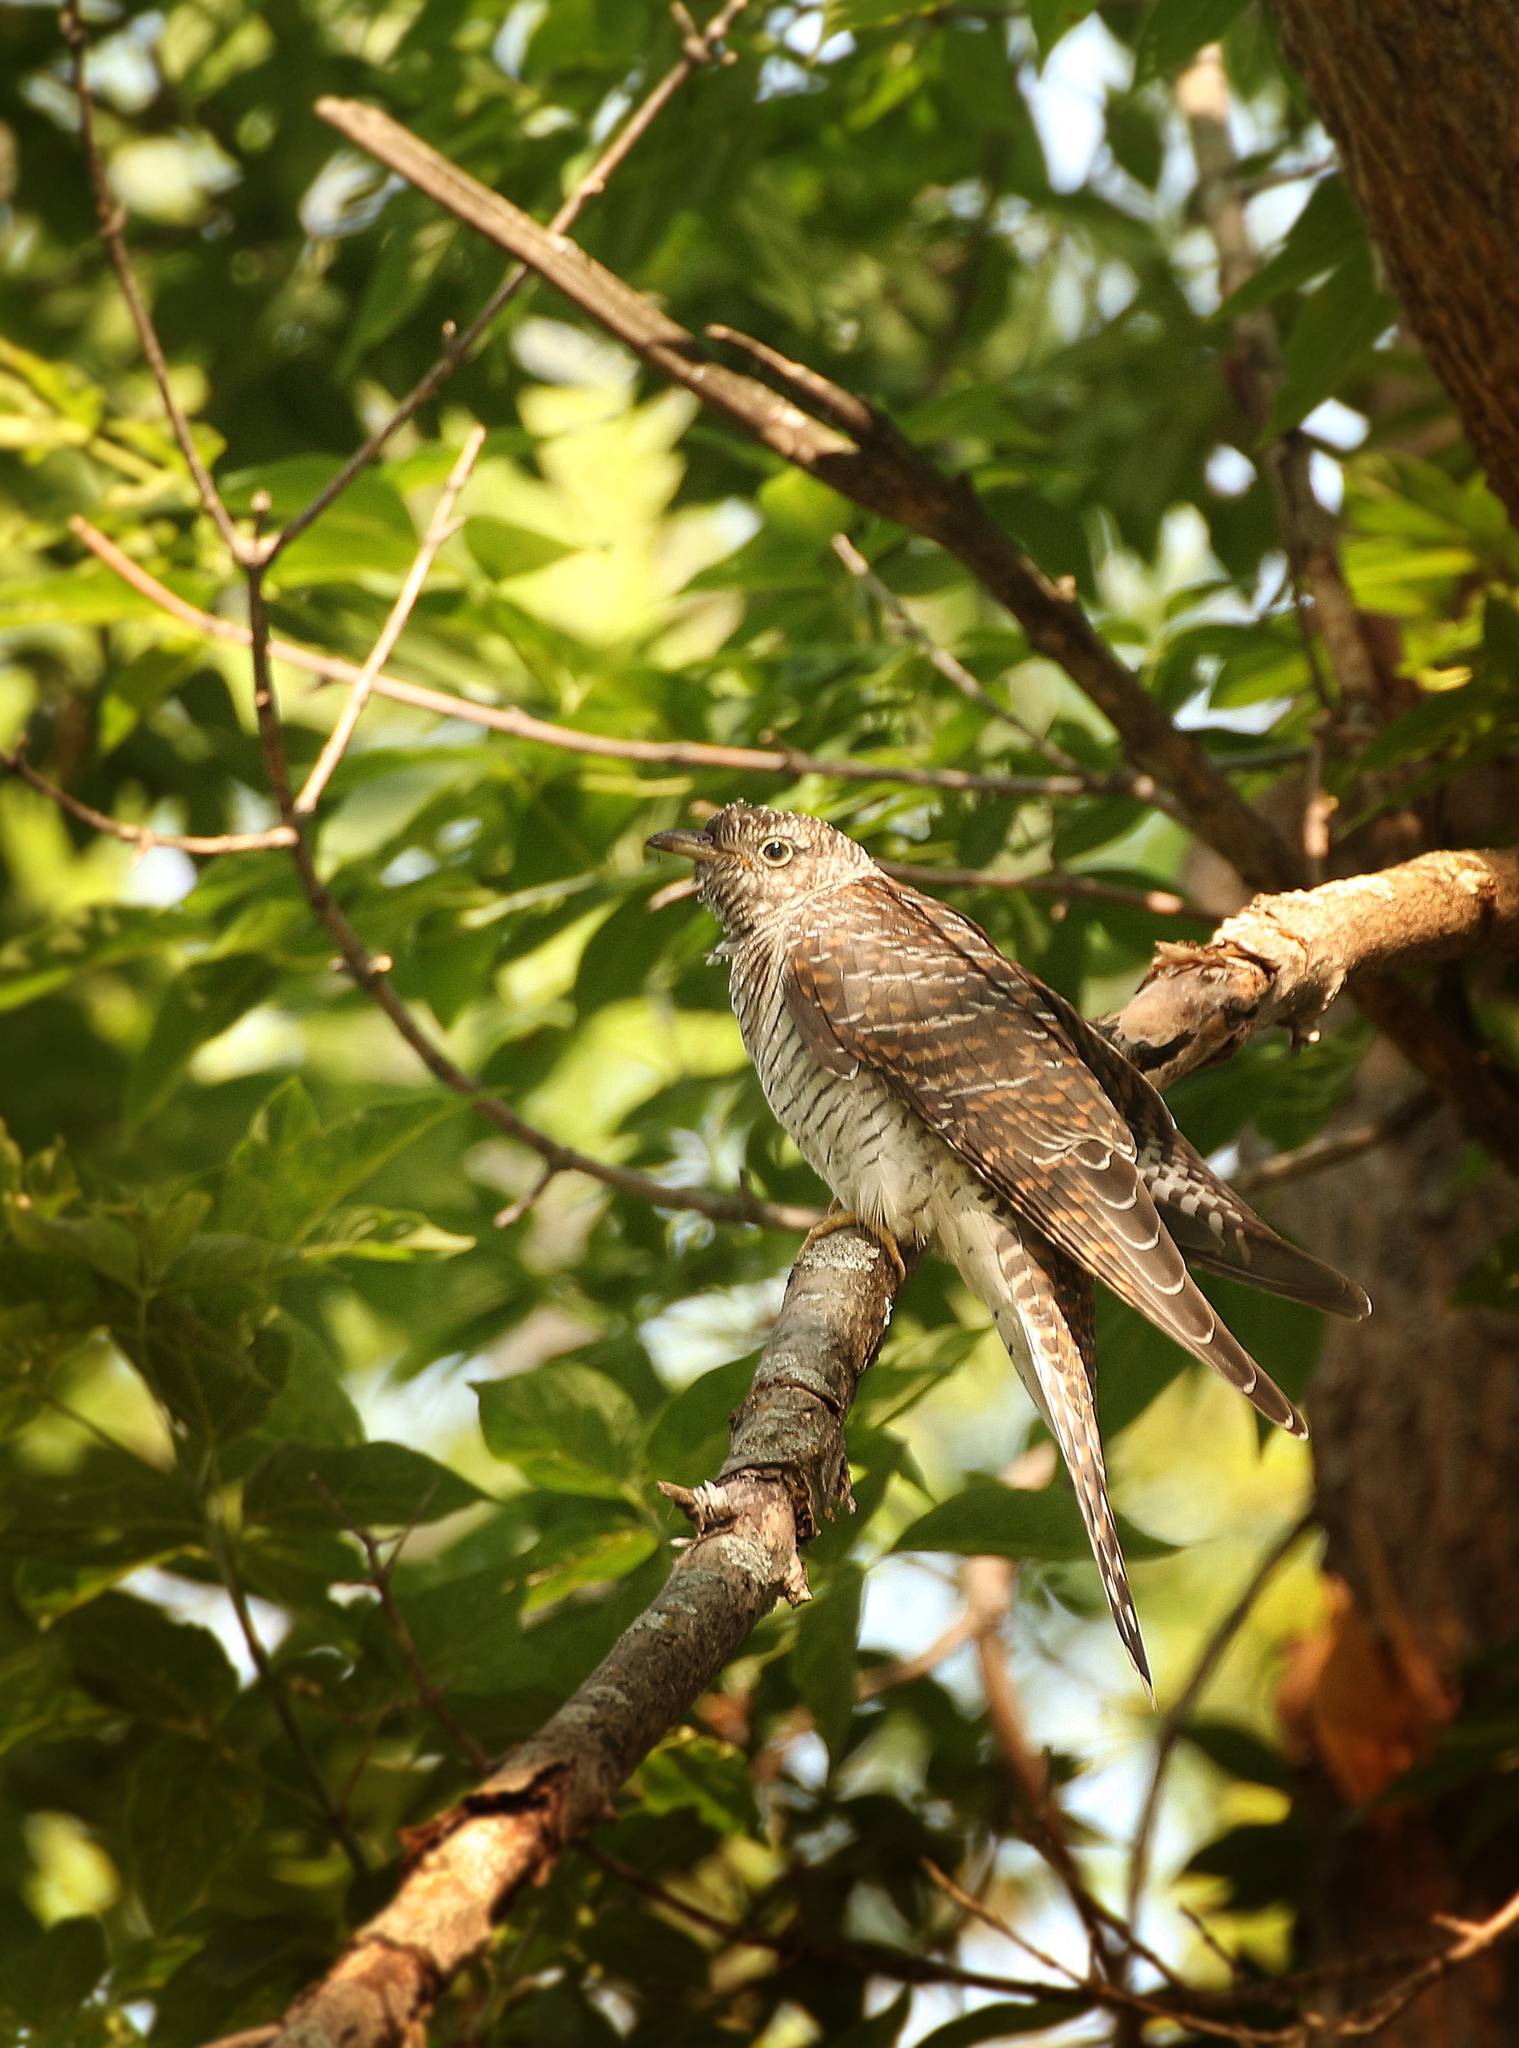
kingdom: Animalia
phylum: Chordata
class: Aves
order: Cuculiformes
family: Cuculidae
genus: Cuculus
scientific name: Cuculus canorus
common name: Common cuckoo
